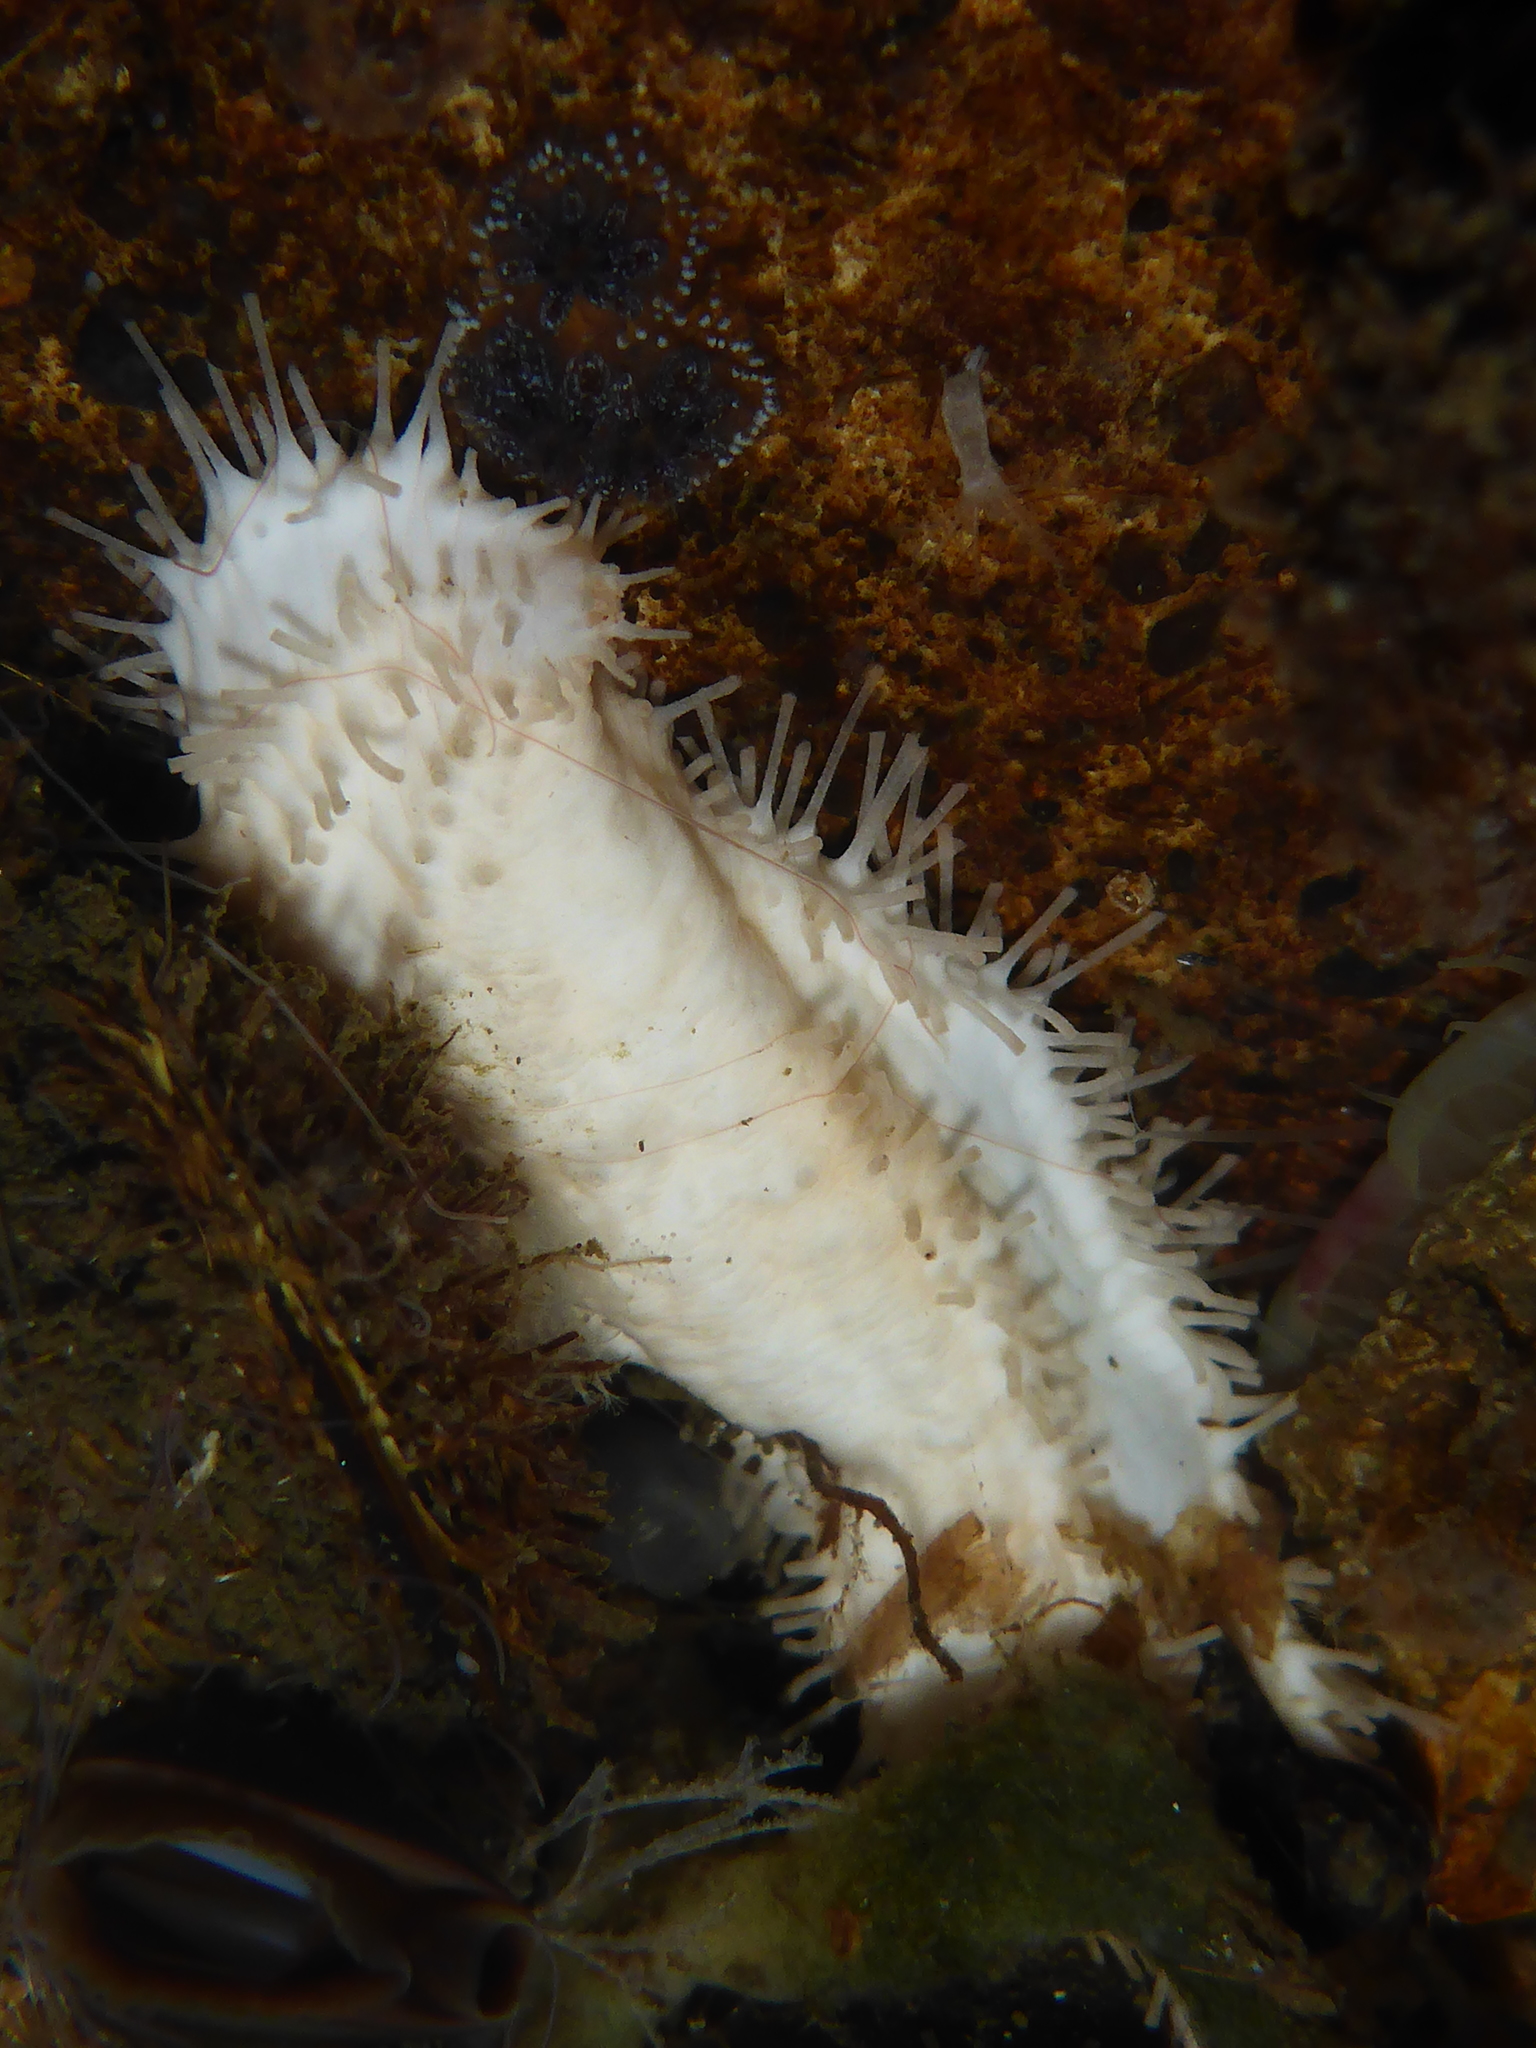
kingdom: Animalia
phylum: Echinodermata
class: Holothuroidea
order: Dendrochirotida
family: Sclerodactylidae
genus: Eupentacta
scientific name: Eupentacta quinquesemita
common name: Pentamerous sea cucumber
